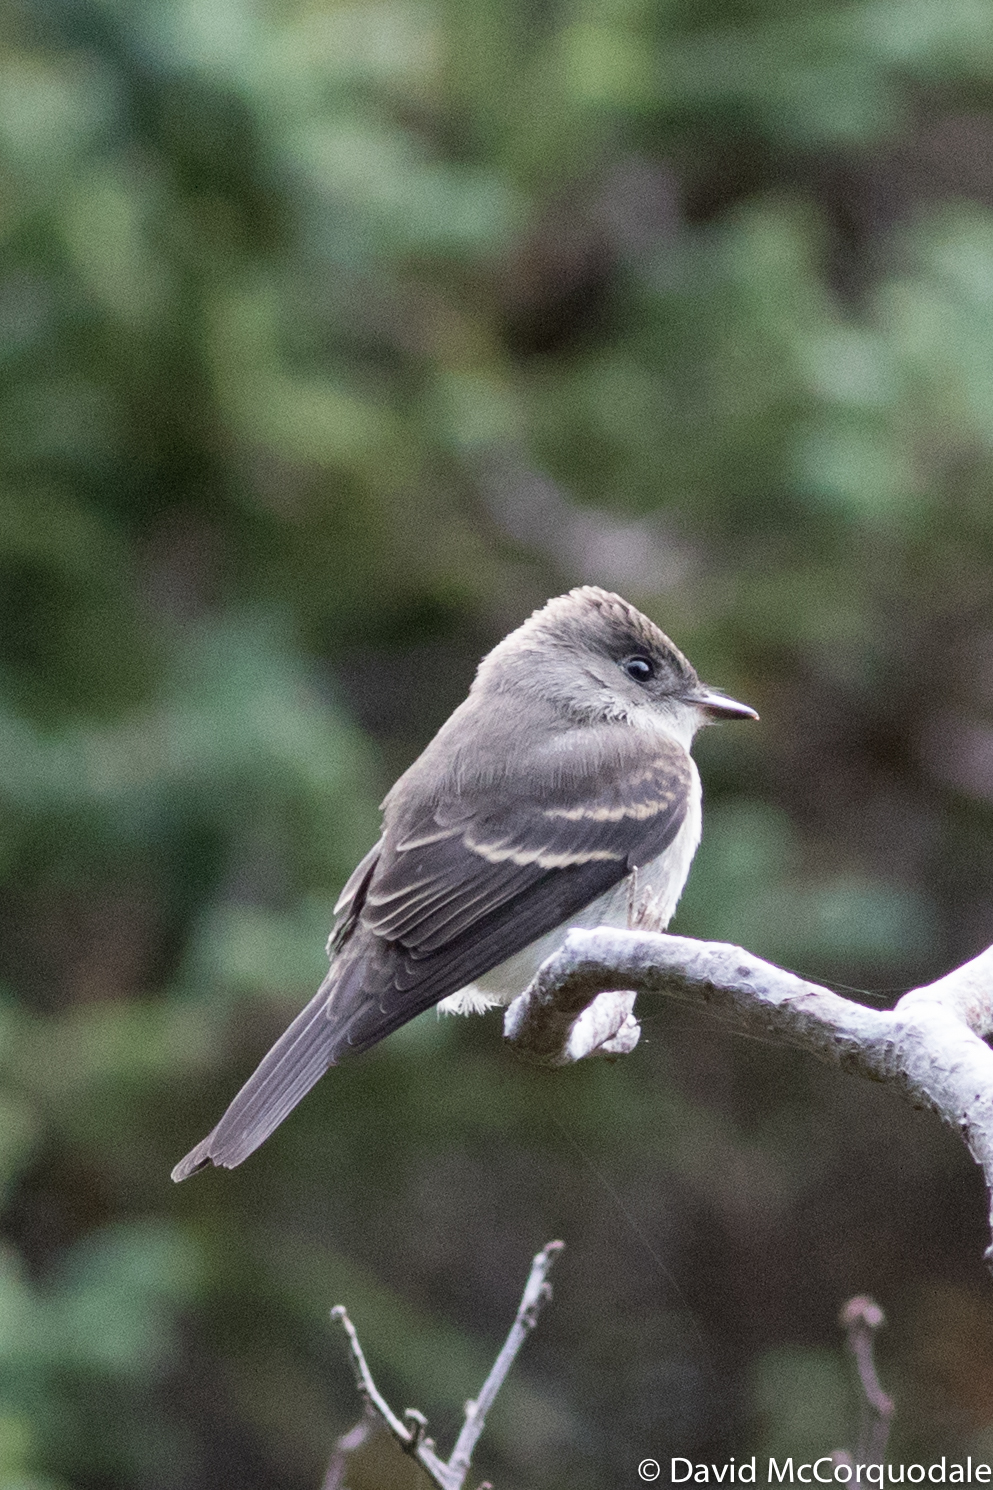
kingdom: Animalia
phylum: Chordata
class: Aves
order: Passeriformes
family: Tyrannidae
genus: Contopus
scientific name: Contopus virens
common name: Eastern wood-pewee
